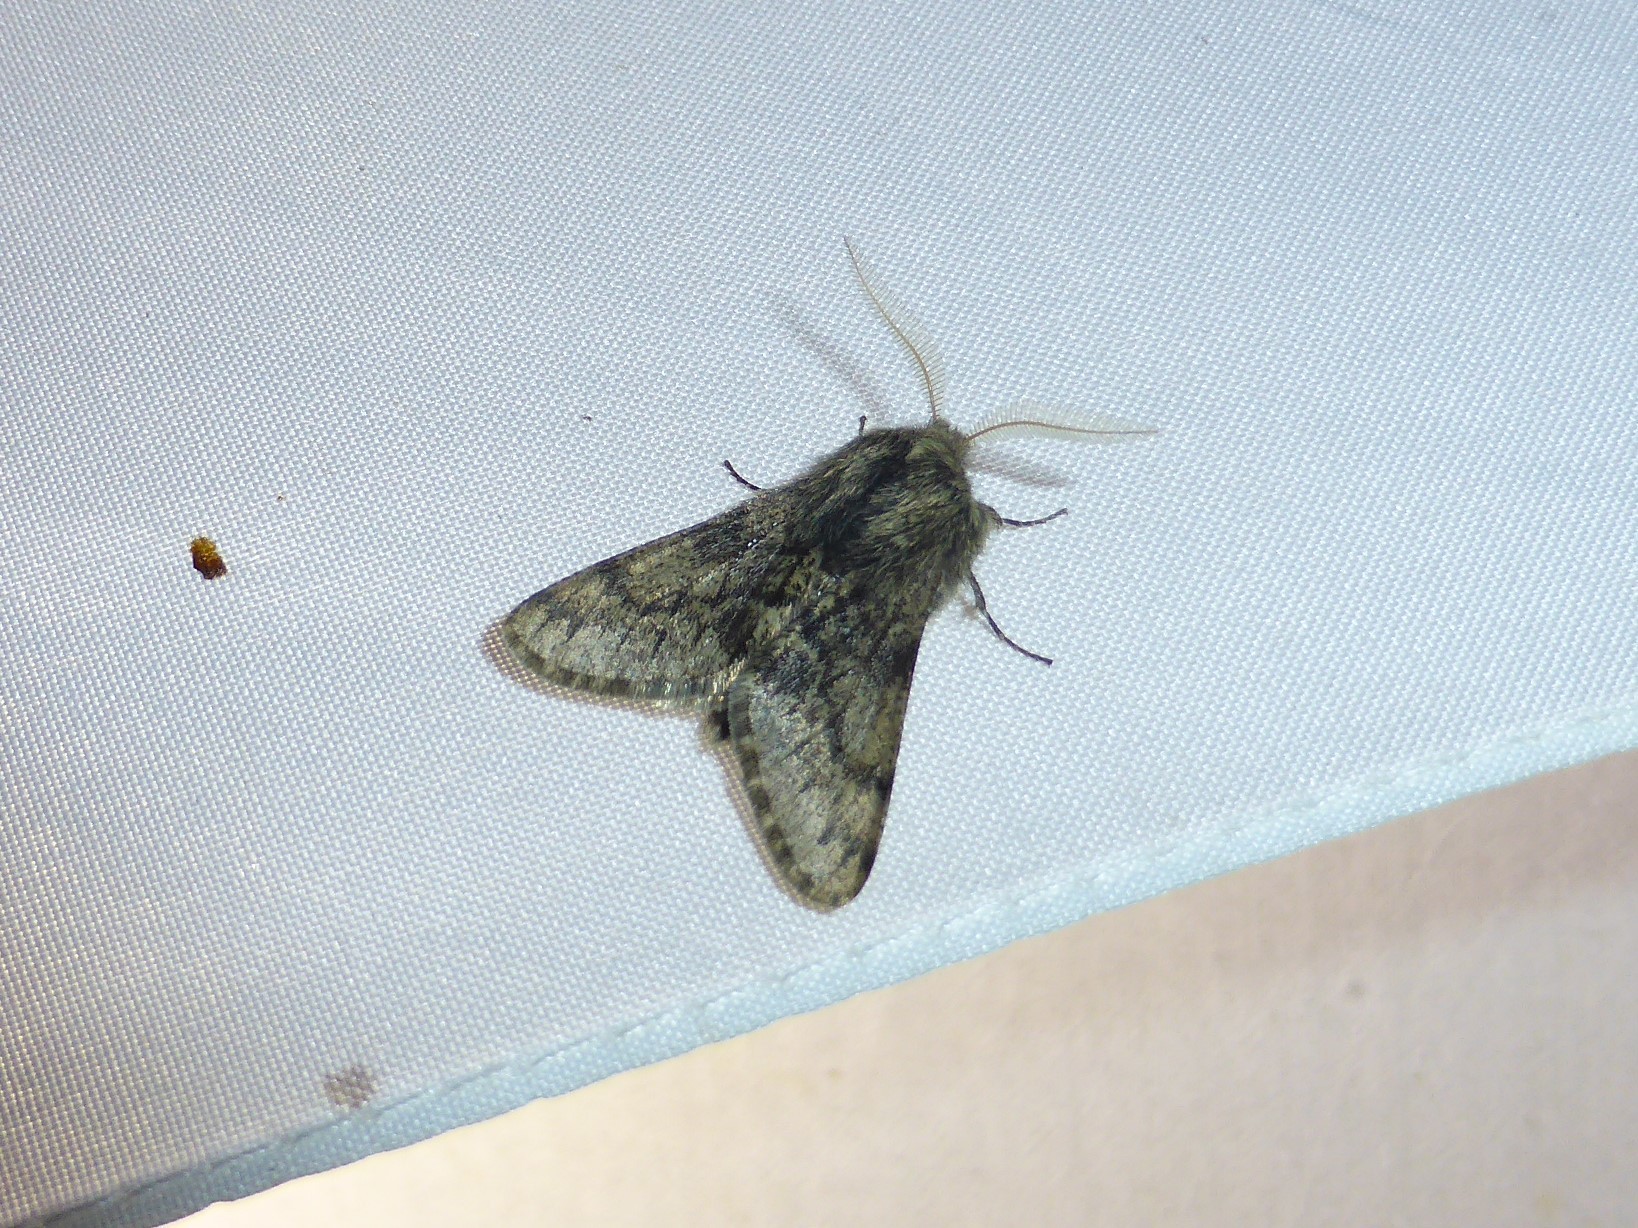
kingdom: Animalia
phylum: Arthropoda
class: Insecta
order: Lepidoptera
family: Geometridae
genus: Apocheima
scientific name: Apocheima hispidaria
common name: Small brindled beauty
